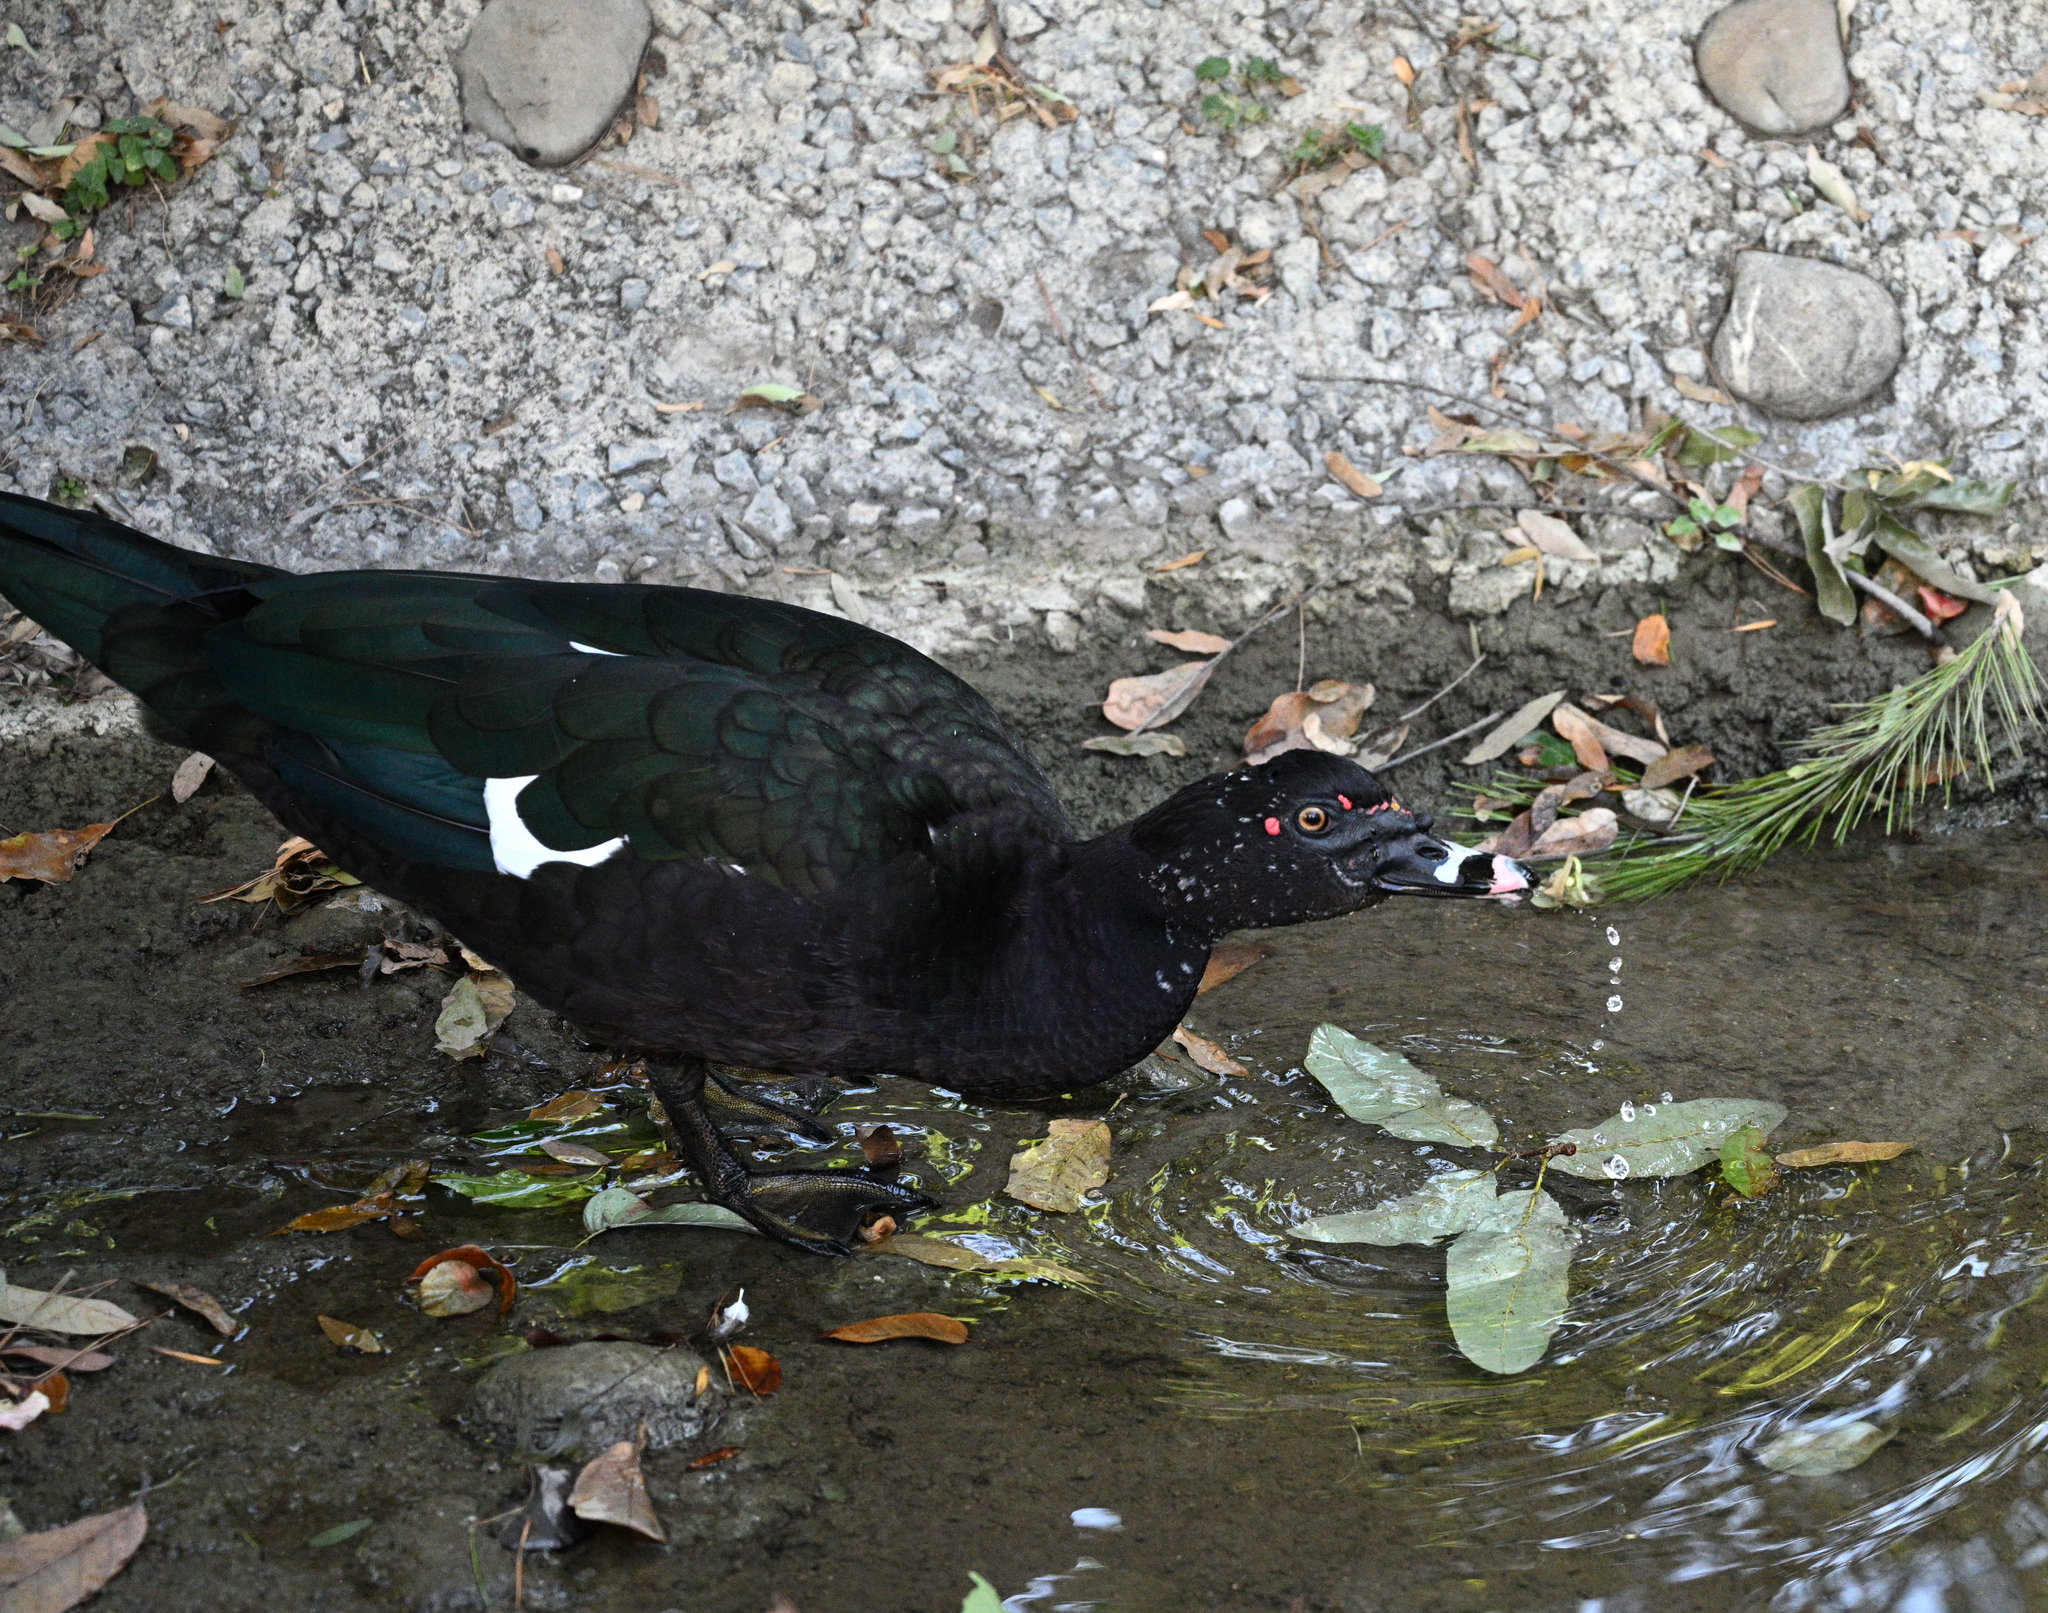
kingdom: Animalia
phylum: Chordata
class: Aves
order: Anseriformes
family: Anatidae
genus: Cairina
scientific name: Cairina moschata
